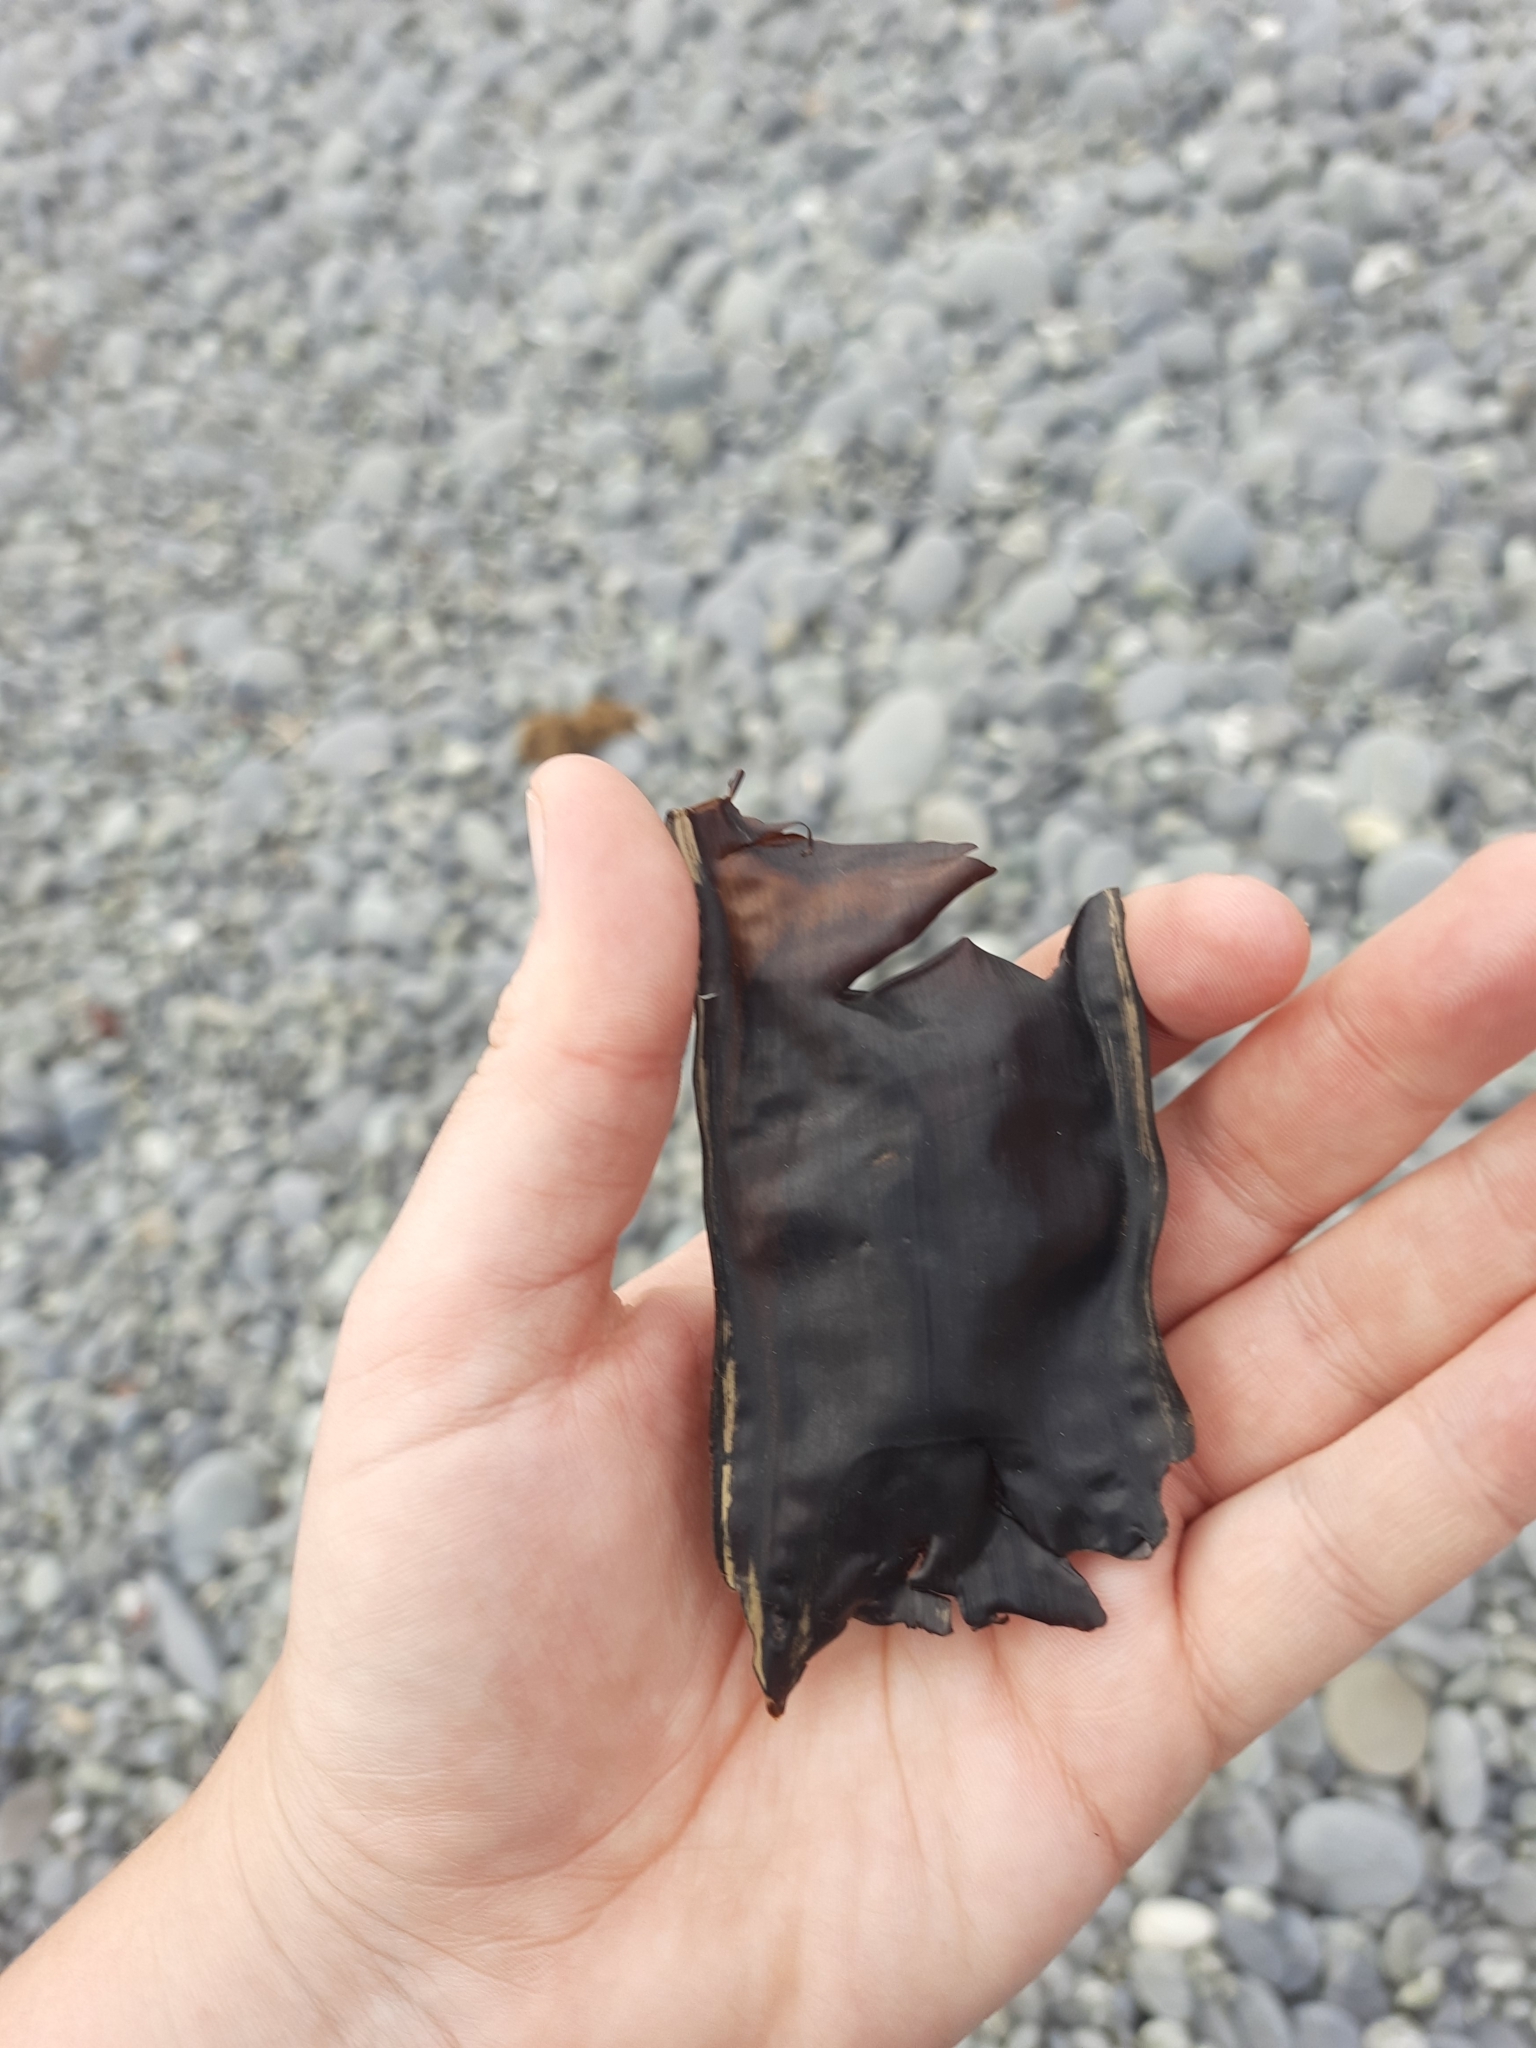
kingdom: Animalia
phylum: Chordata
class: Elasmobranchii
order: Rajiformes
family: Rajidae
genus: Zearaja
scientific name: Zearaja nasuta
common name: New zealand rough skate
